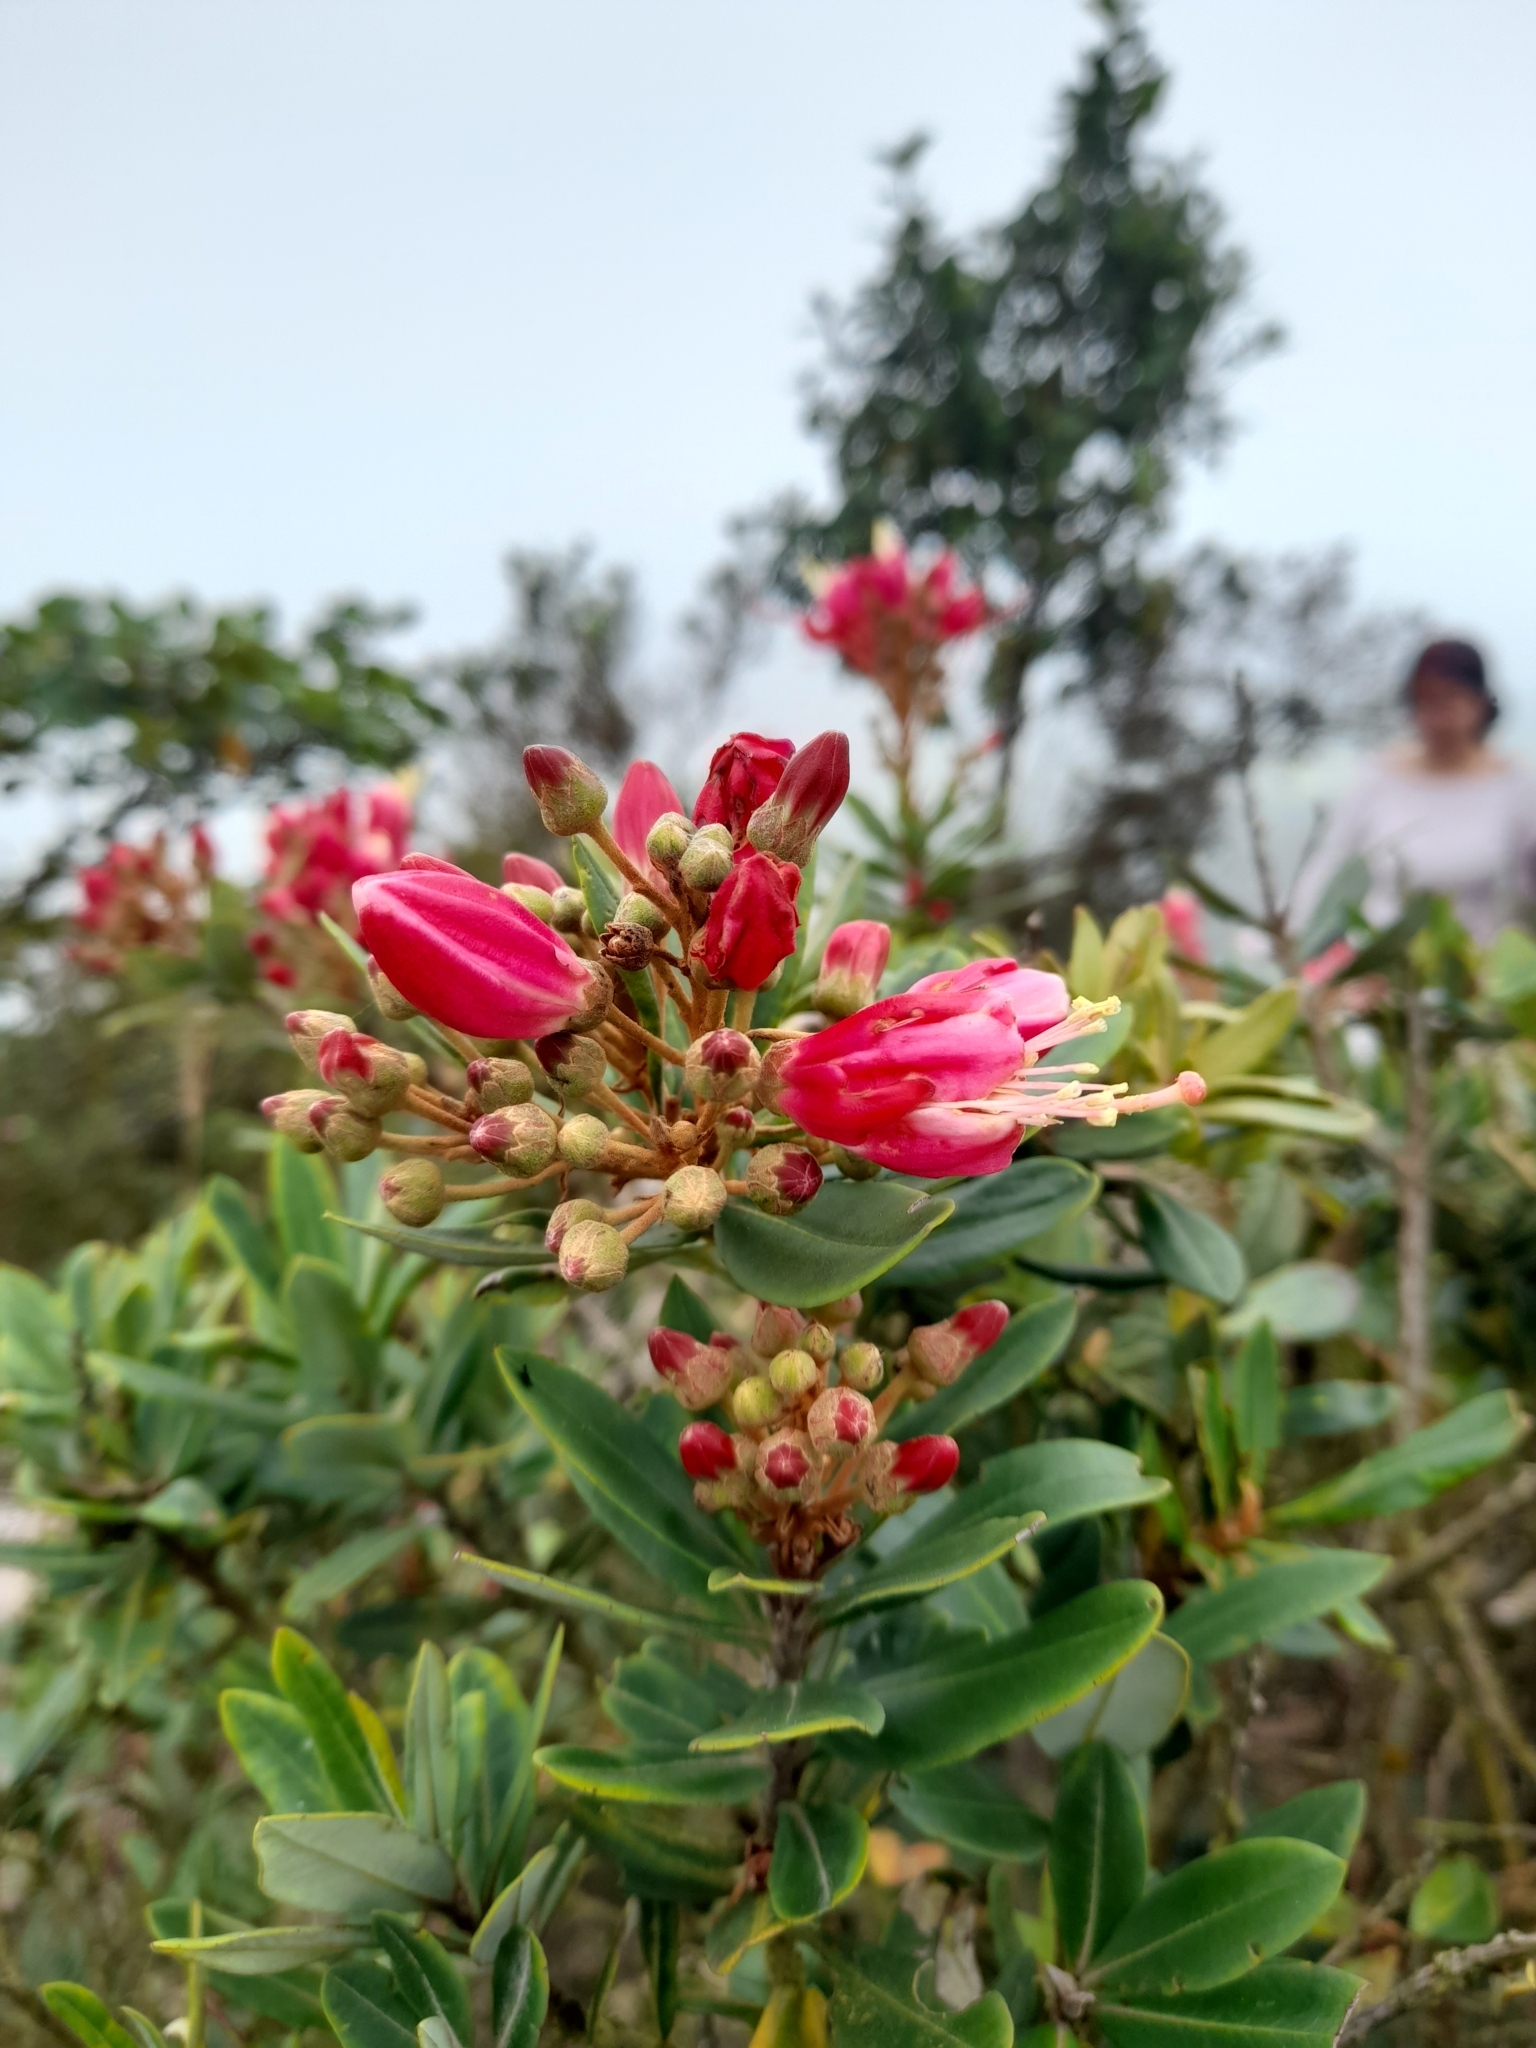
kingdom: Plantae
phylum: Tracheophyta
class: Magnoliopsida
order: Ericales
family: Ericaceae
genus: Bejaria
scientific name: Bejaria mathewsii
